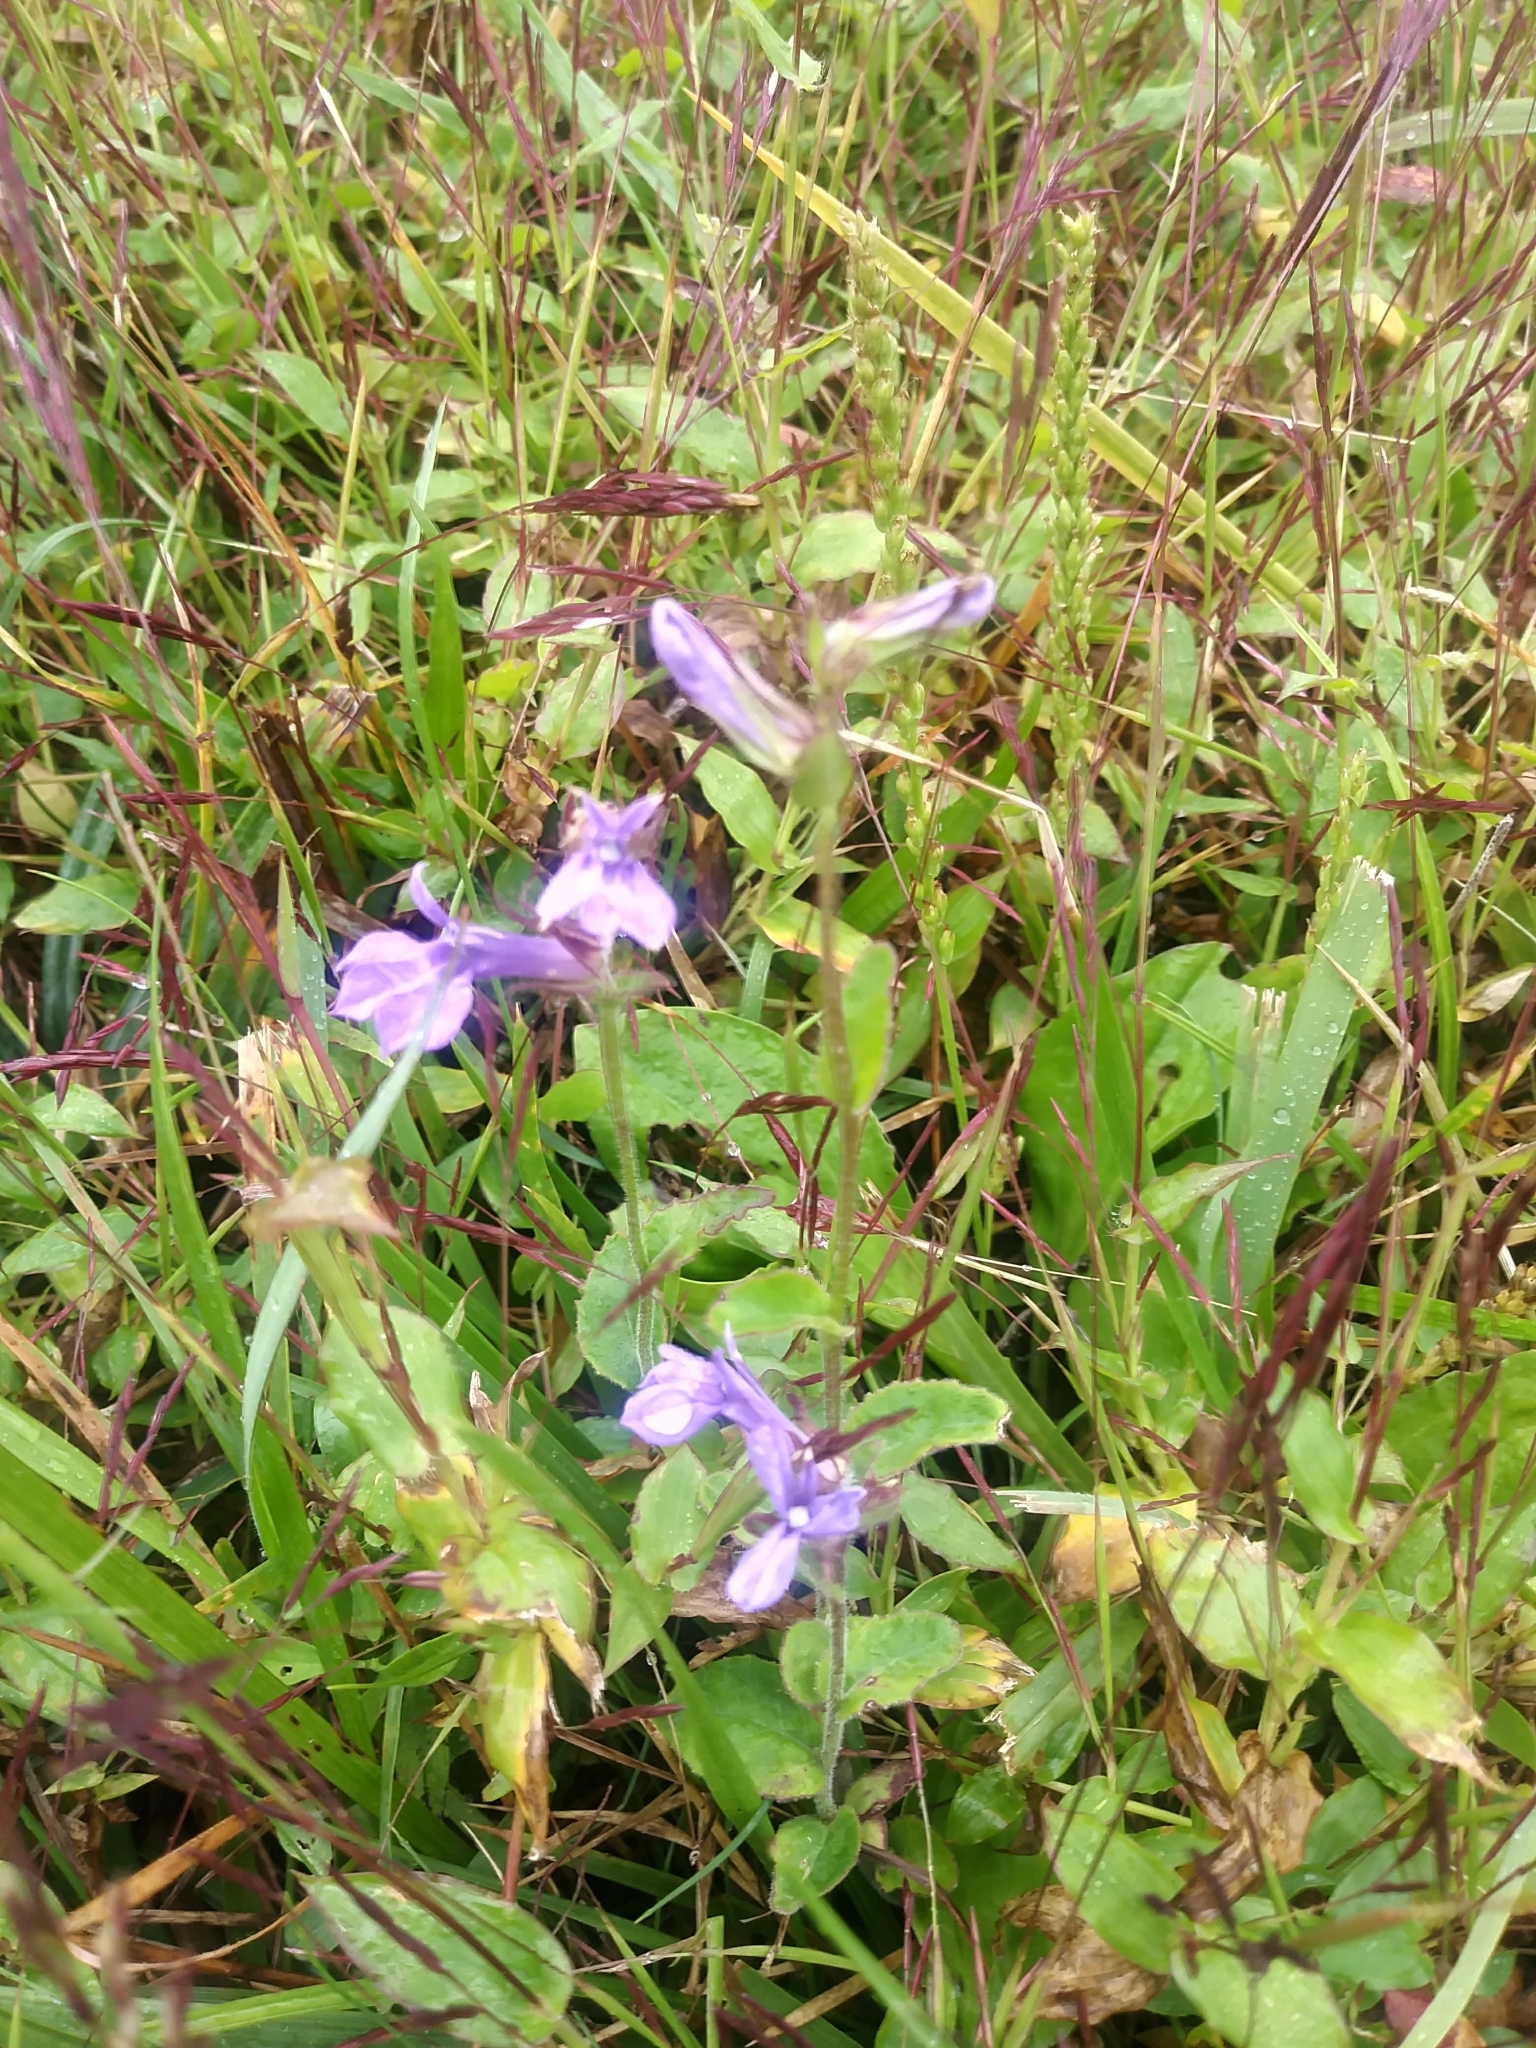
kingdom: Plantae
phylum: Tracheophyta
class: Magnoliopsida
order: Asterales
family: Campanulaceae
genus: Lobelia
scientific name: Lobelia puberula
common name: Purple dewdrop
